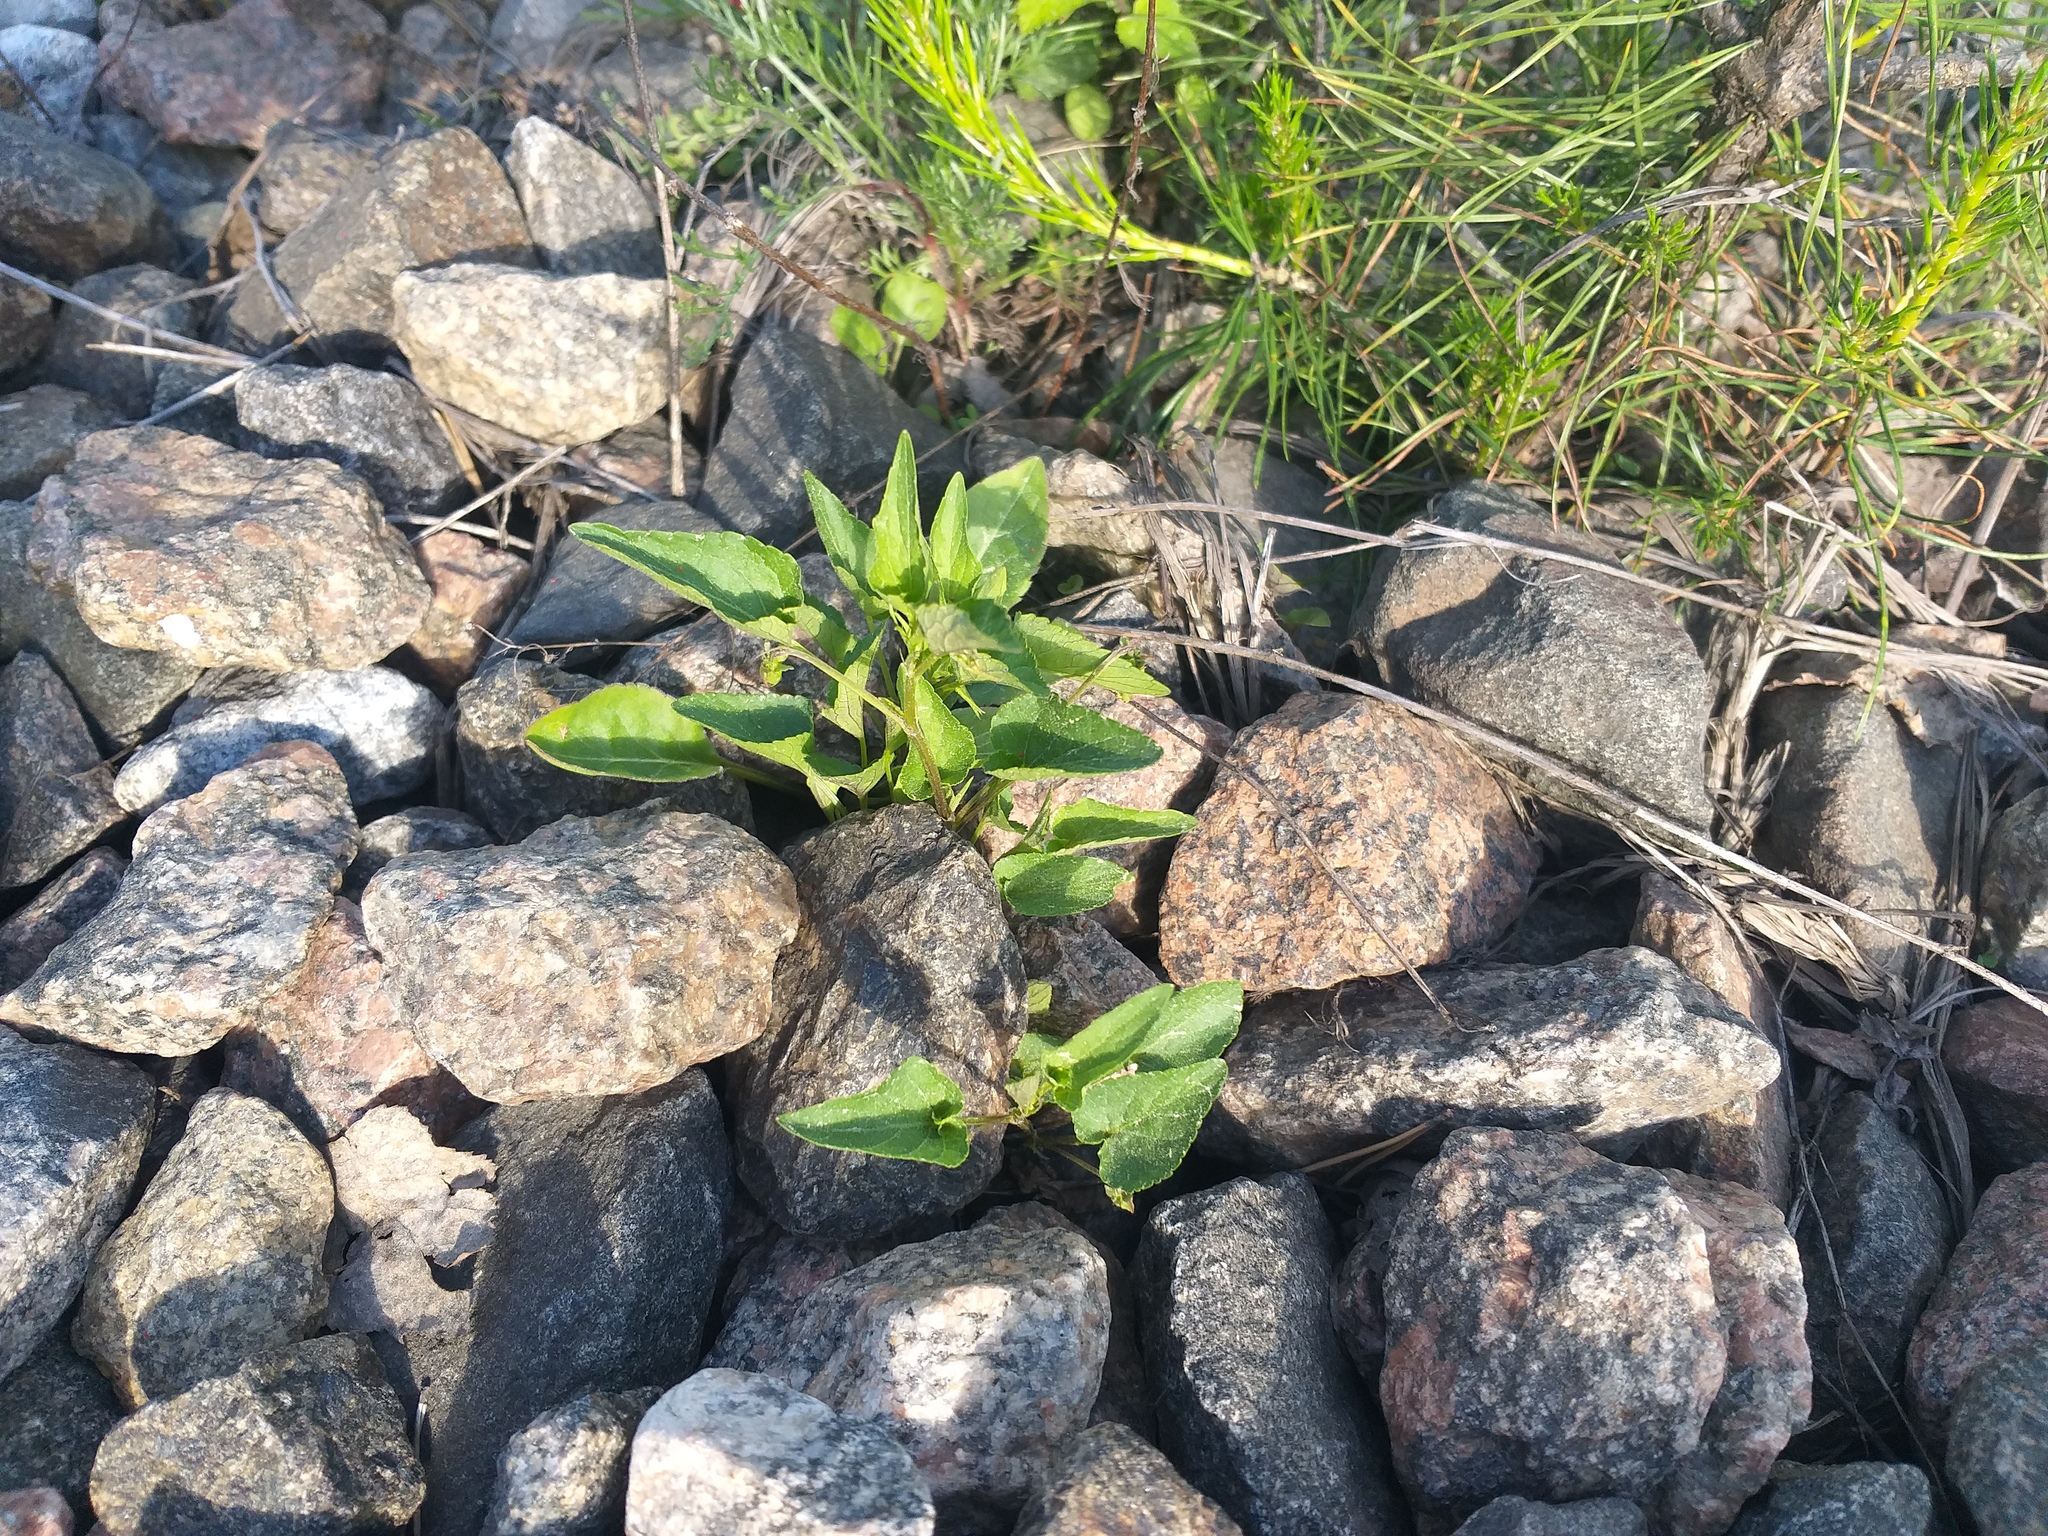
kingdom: Plantae
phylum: Tracheophyta
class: Magnoliopsida
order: Malpighiales
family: Violaceae
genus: Viola
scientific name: Viola canina
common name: Heath dog-violet
